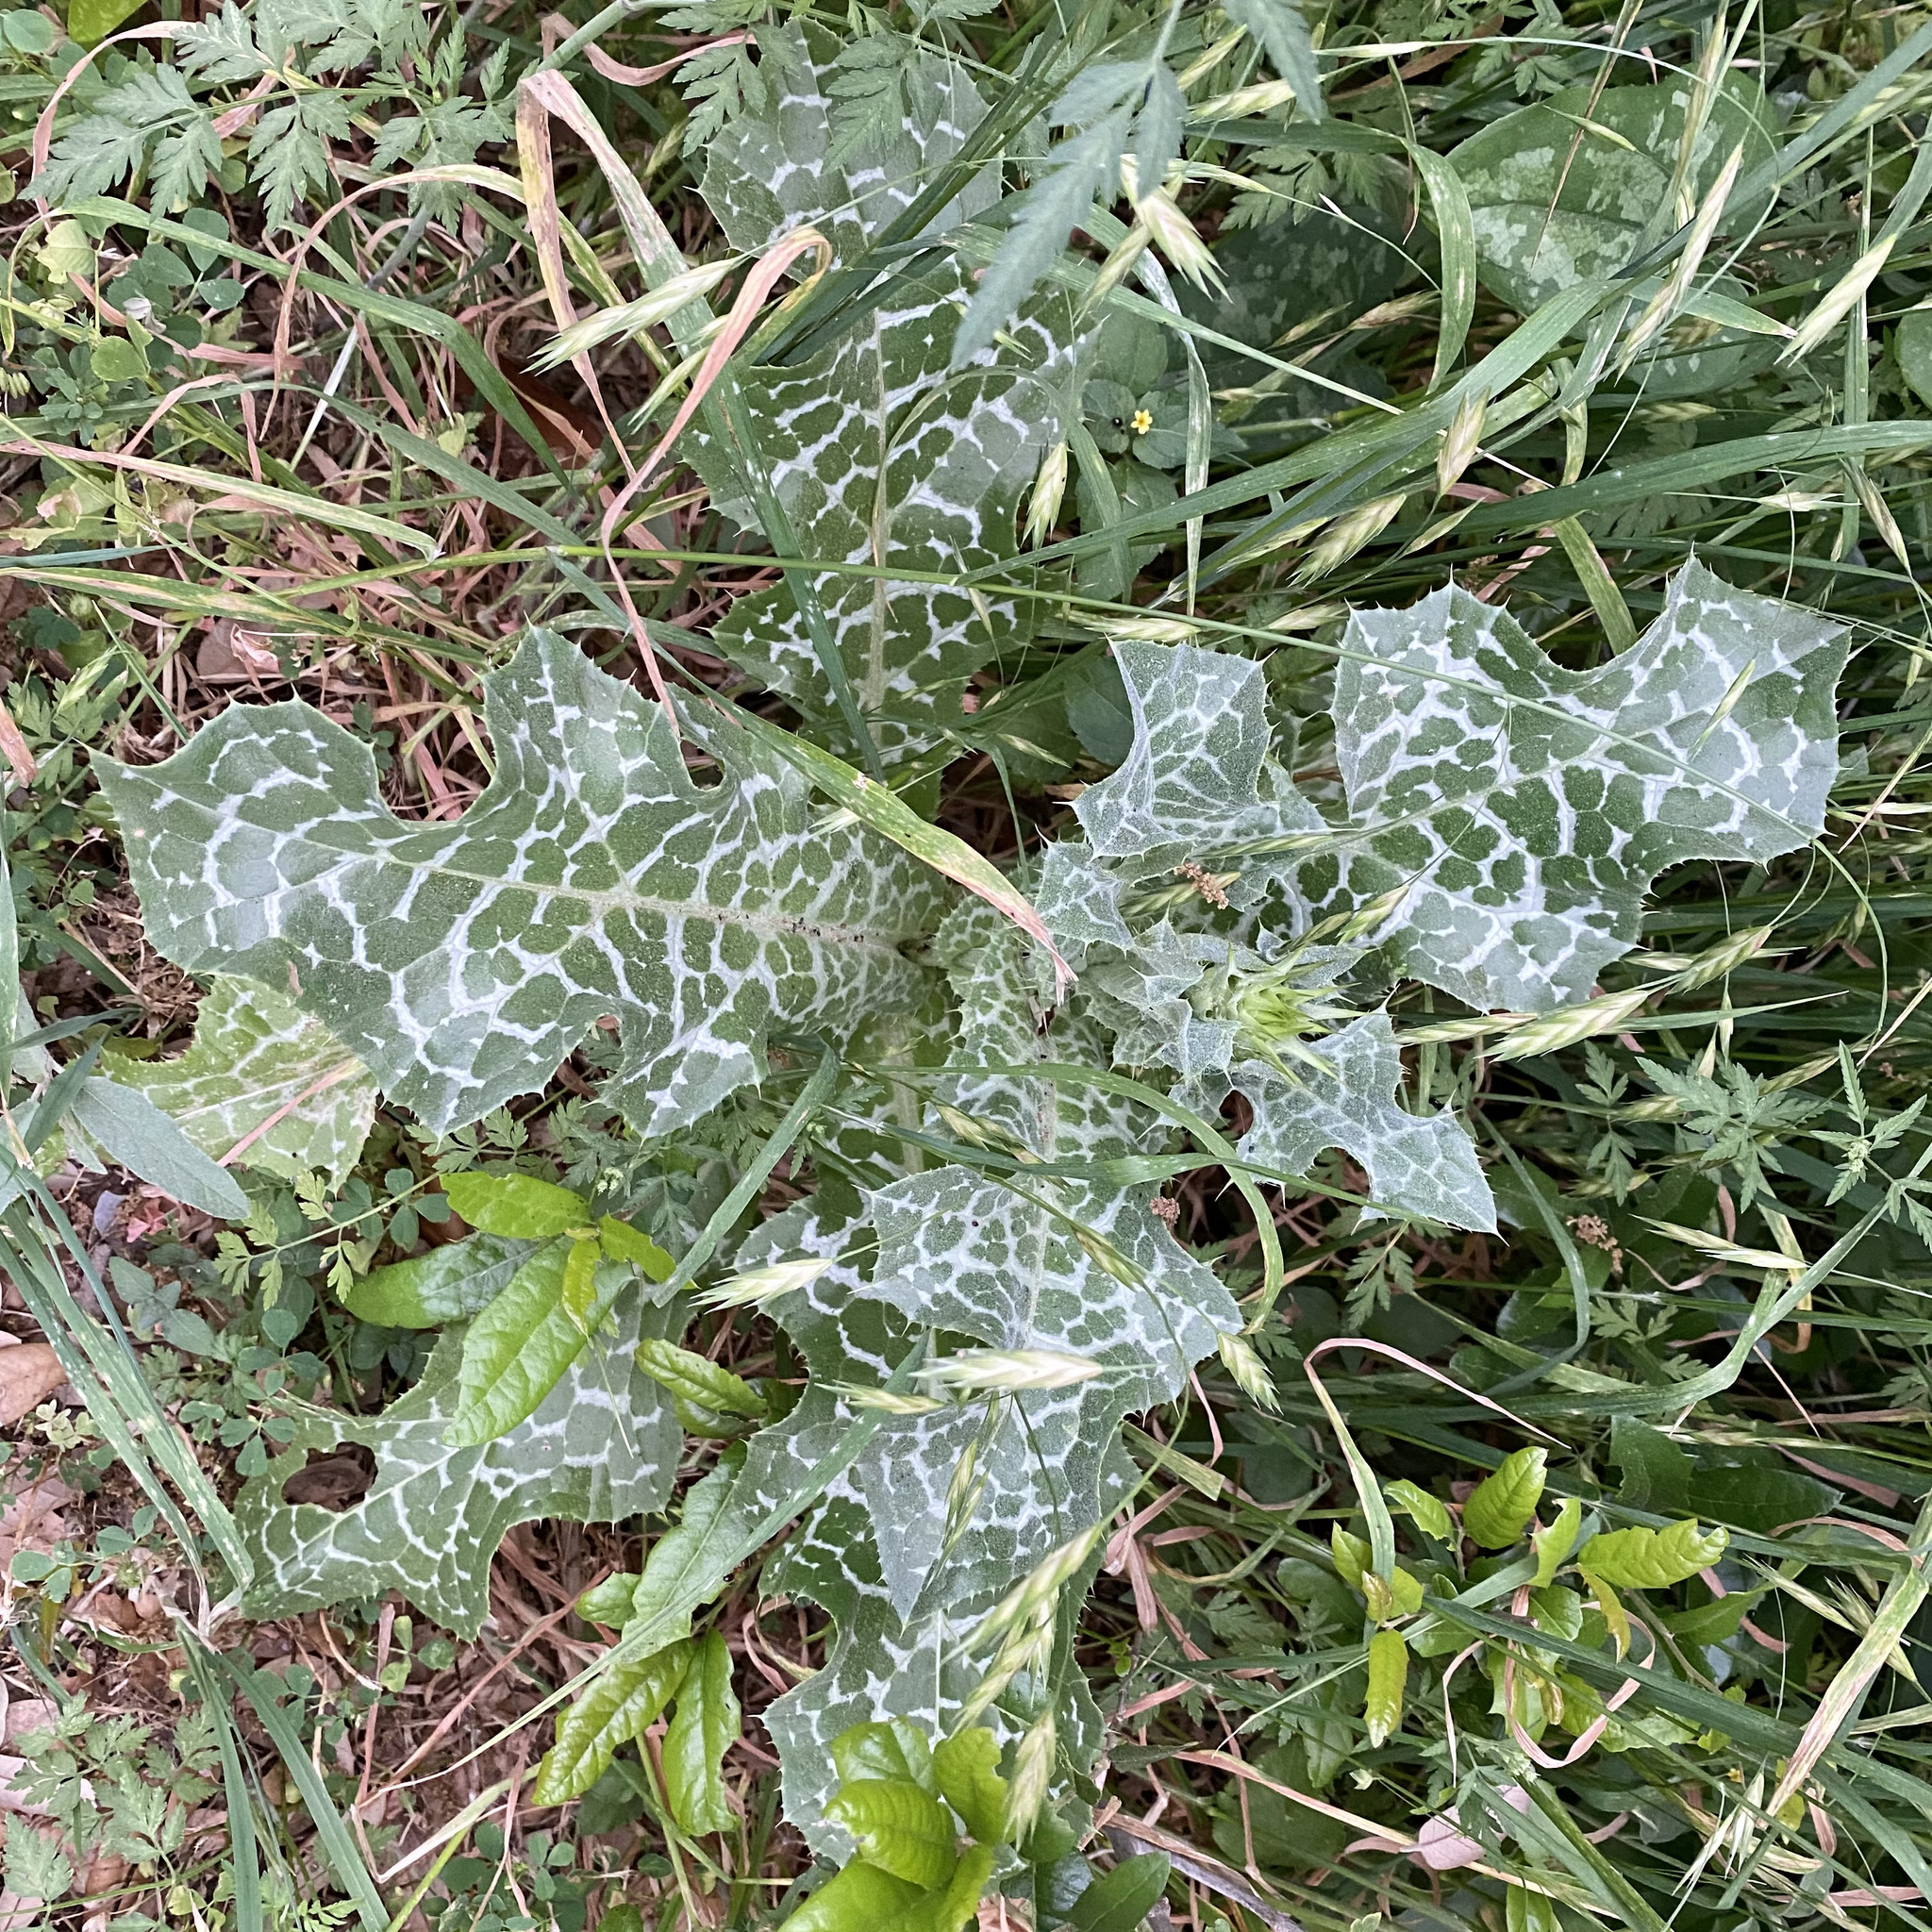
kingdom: Plantae
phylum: Tracheophyta
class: Magnoliopsida
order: Asterales
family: Asteraceae
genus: Silybum
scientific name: Silybum marianum
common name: Milk thistle
